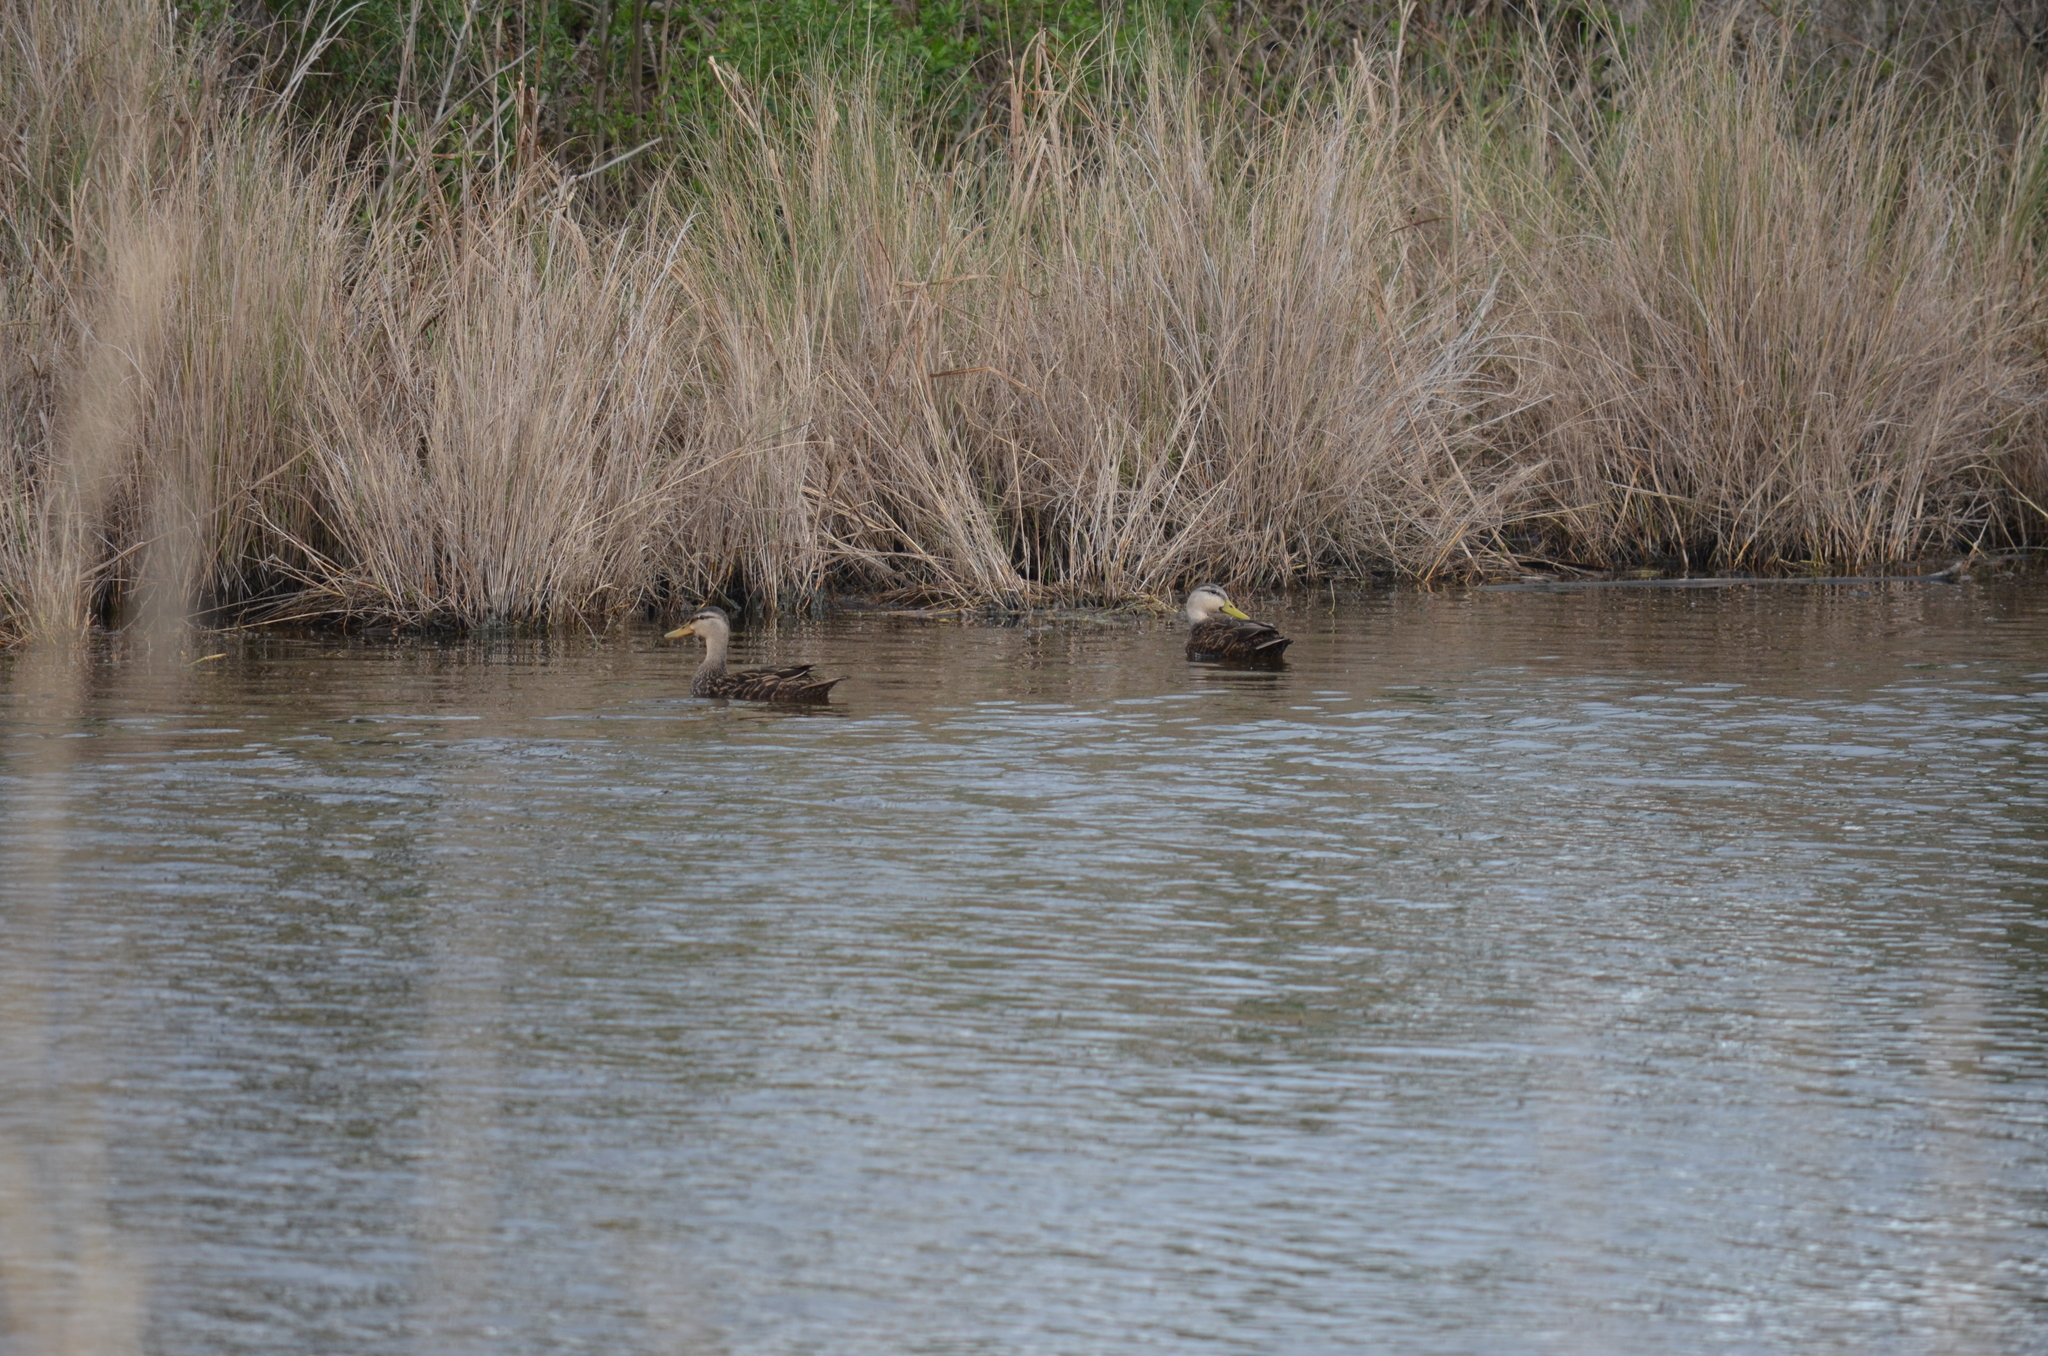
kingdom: Animalia
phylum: Chordata
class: Aves
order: Anseriformes
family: Anatidae
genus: Anas
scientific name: Anas fulvigula
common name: Mottled duck
